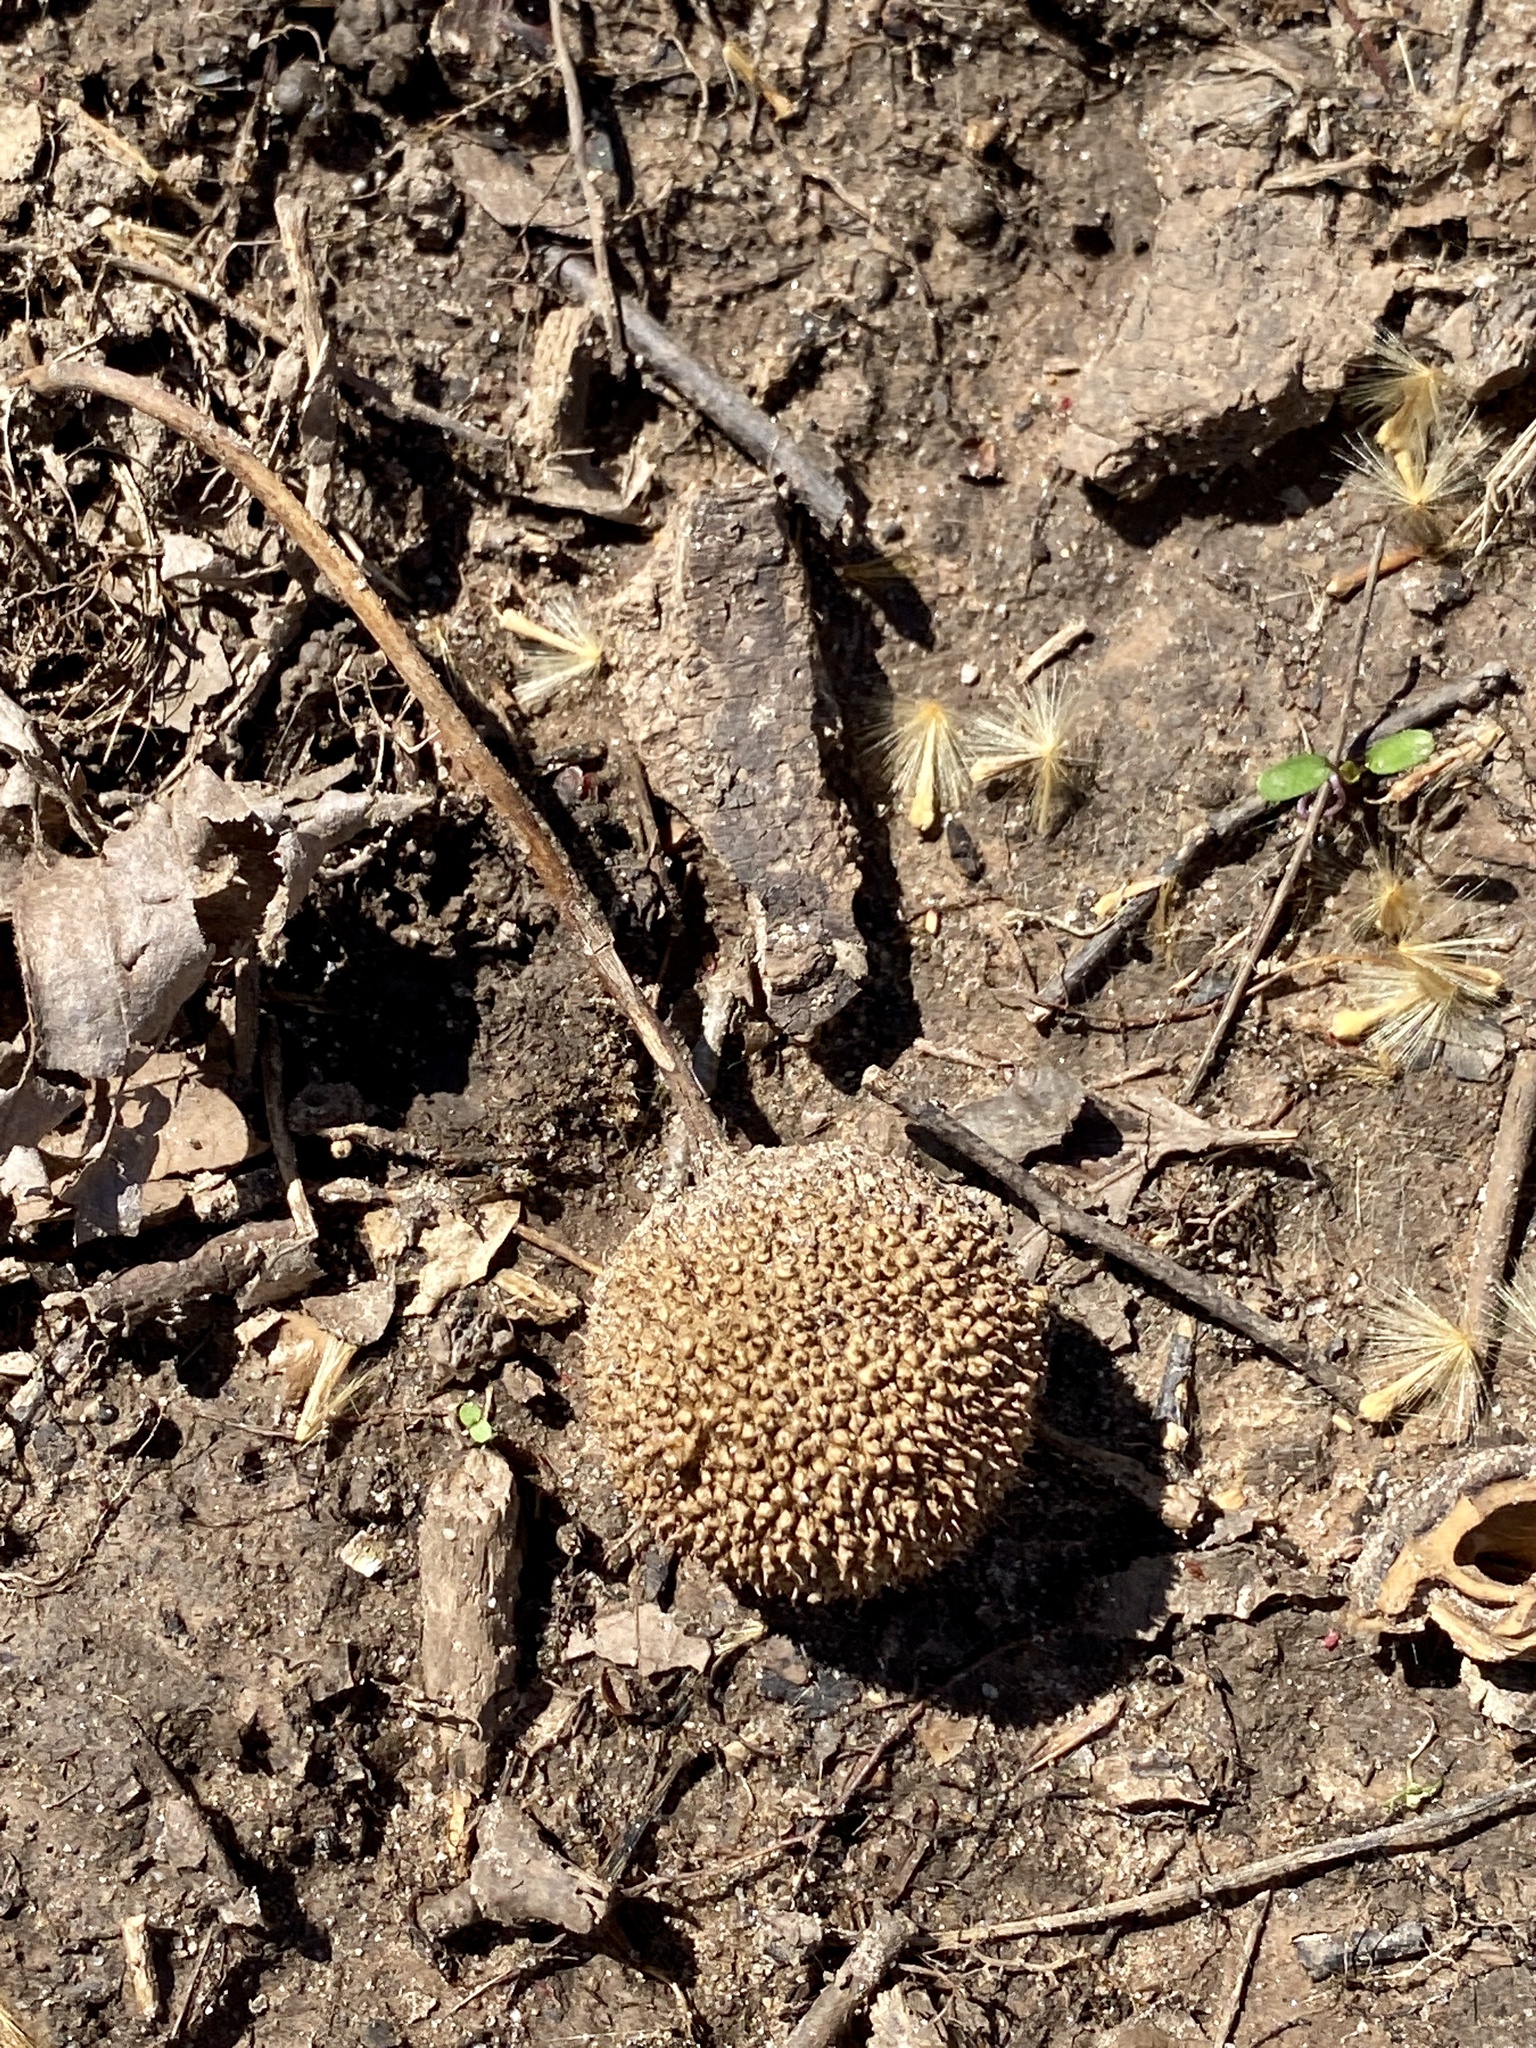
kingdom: Plantae
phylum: Tracheophyta
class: Magnoliopsida
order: Proteales
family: Platanaceae
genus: Platanus
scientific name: Platanus occidentalis
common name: American sycamore
